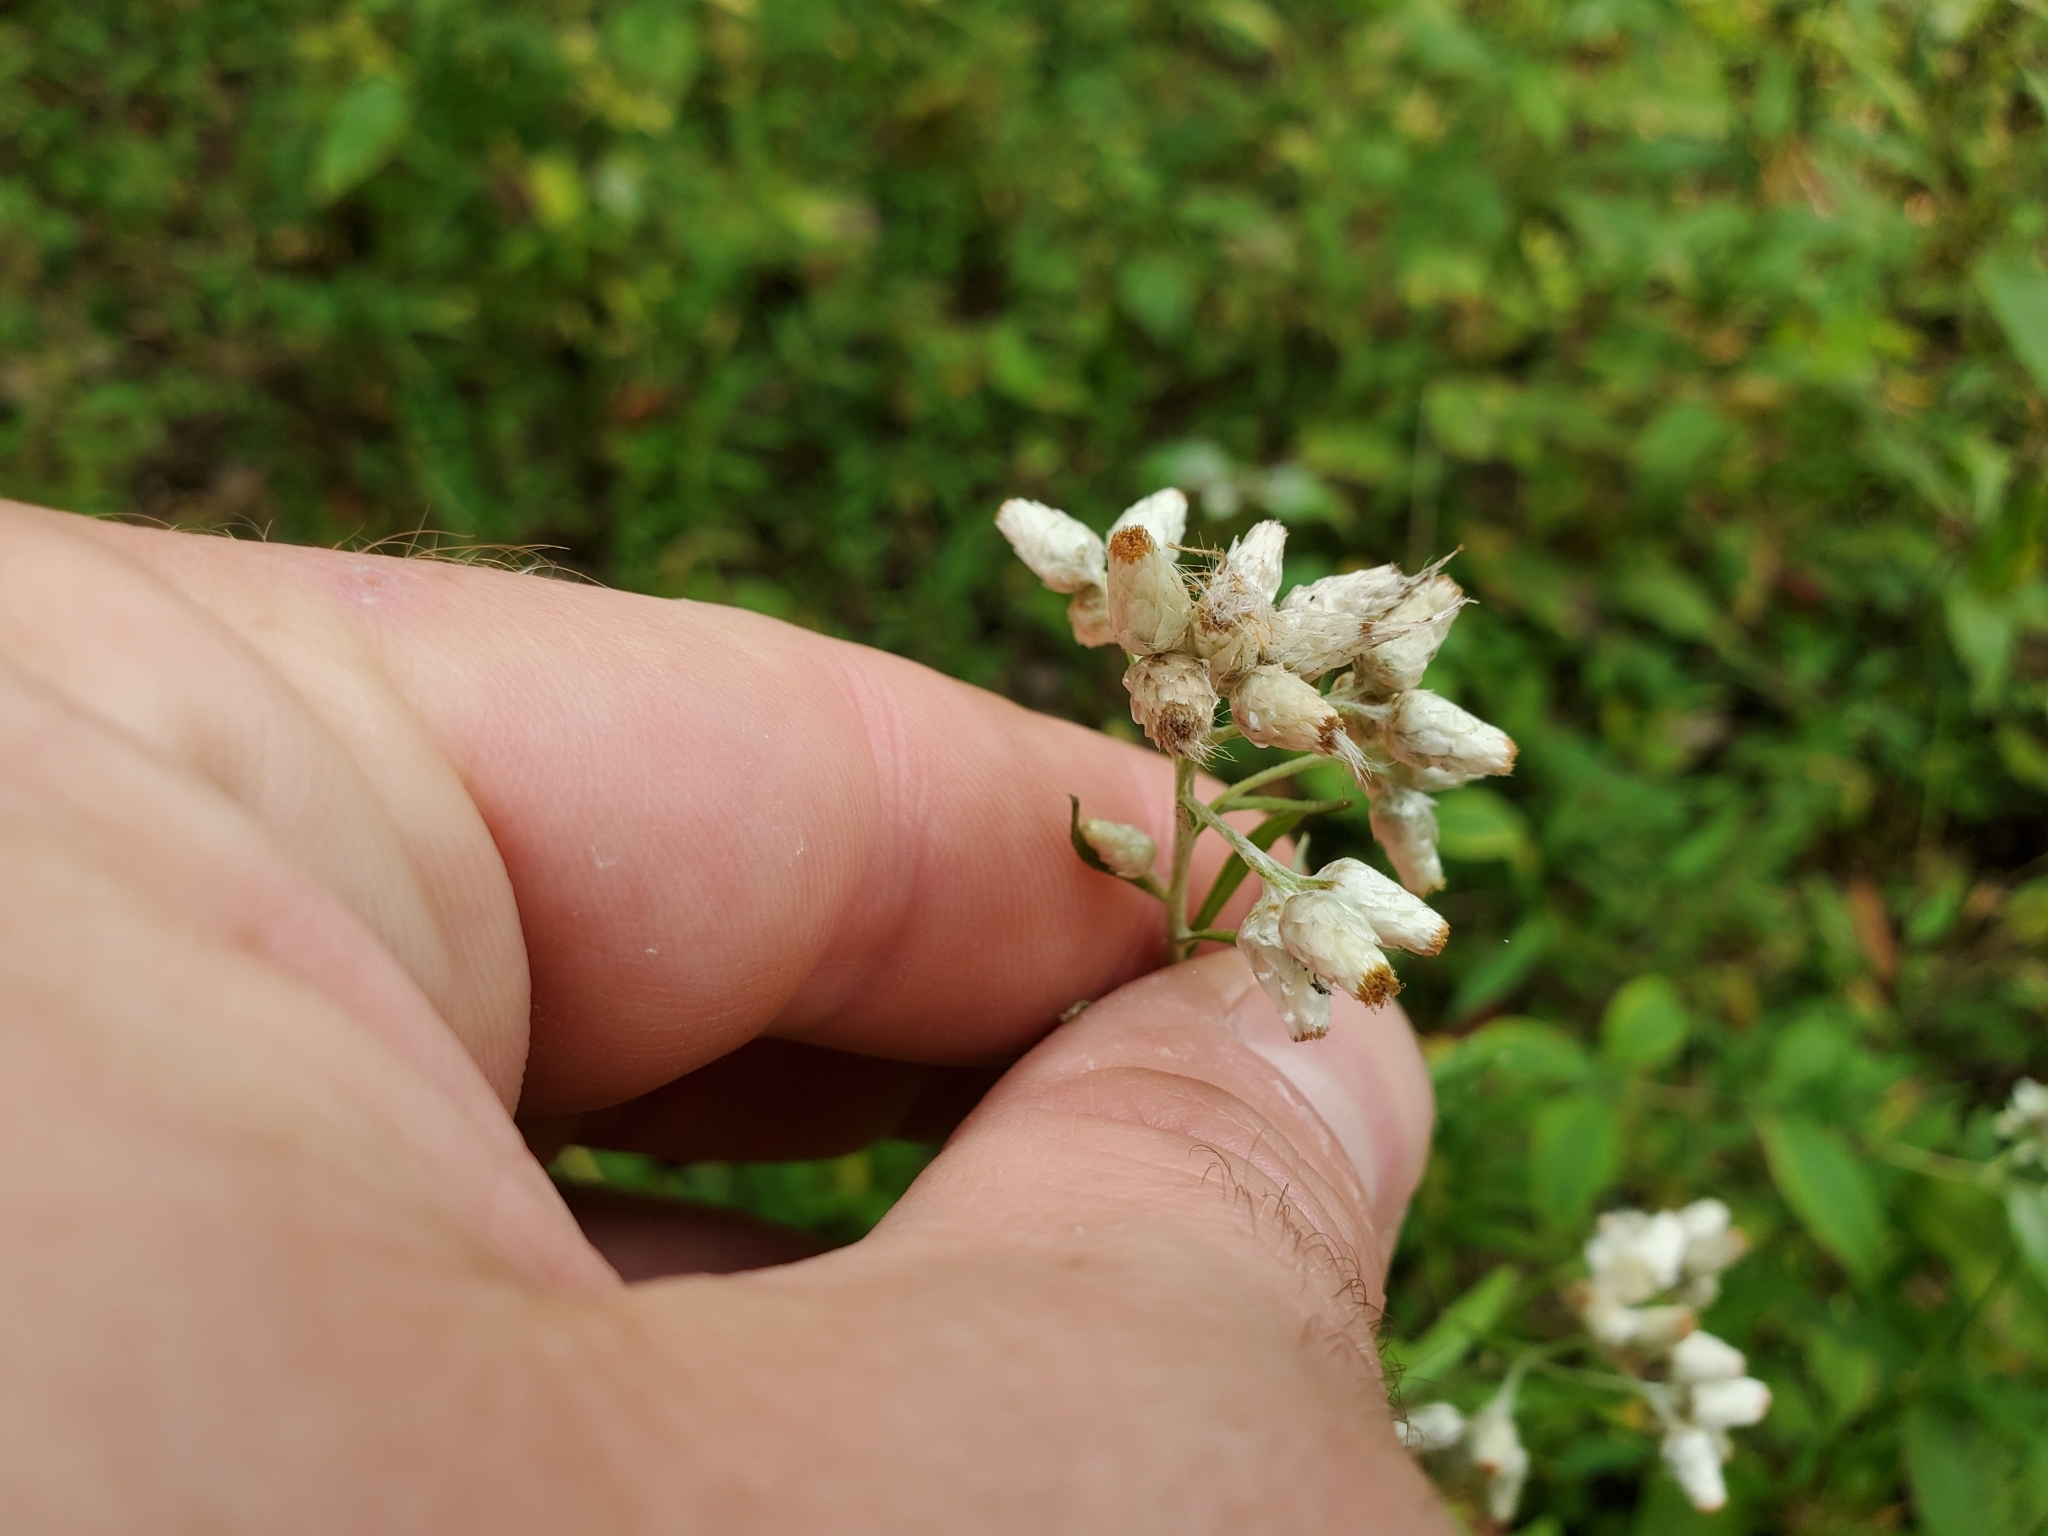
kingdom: Plantae
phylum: Tracheophyta
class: Magnoliopsida
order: Asterales
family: Asteraceae
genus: Pseudognaphalium
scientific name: Pseudognaphalium obtusifolium
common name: Eastern rabbit-tobacco
